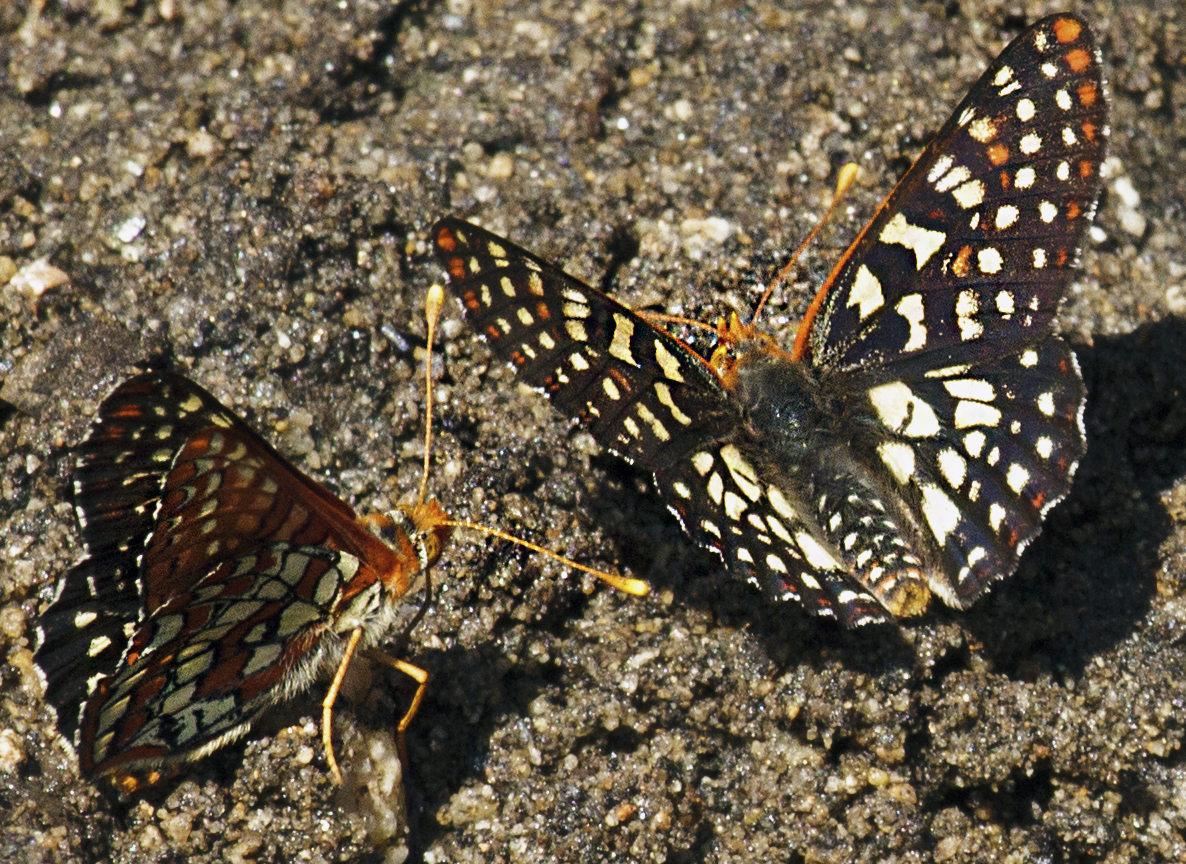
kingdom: Animalia
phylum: Arthropoda
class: Insecta
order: Lepidoptera
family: Nymphalidae
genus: Occidryas
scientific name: Occidryas chalcedona
